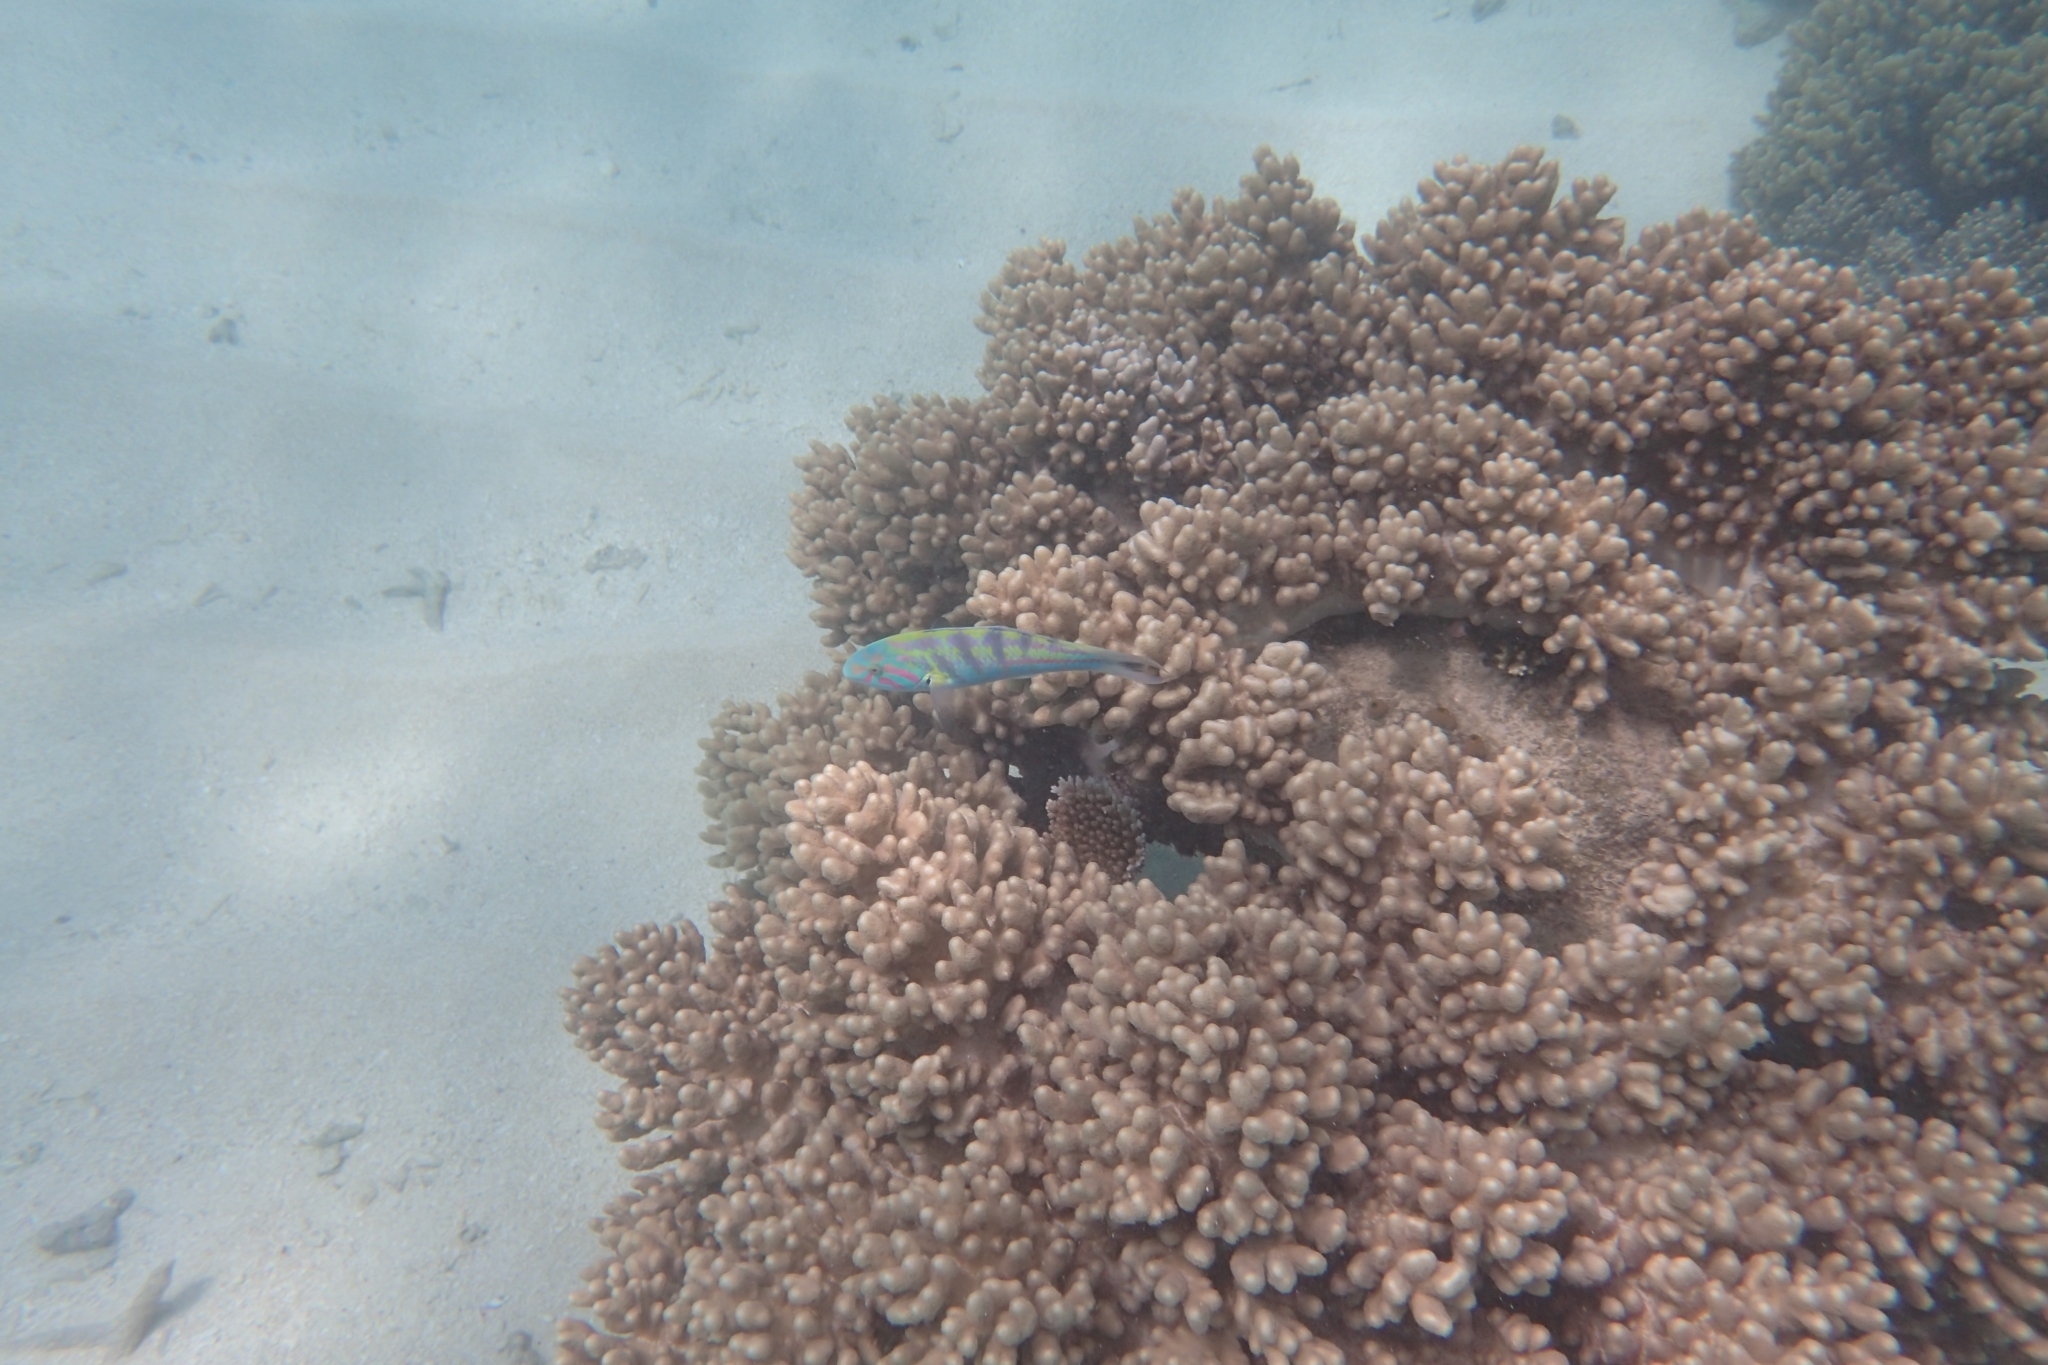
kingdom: Animalia
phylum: Chordata
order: Perciformes
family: Labridae
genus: Thalassoma
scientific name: Thalassoma hardwicke
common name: Sixbar wrasse
